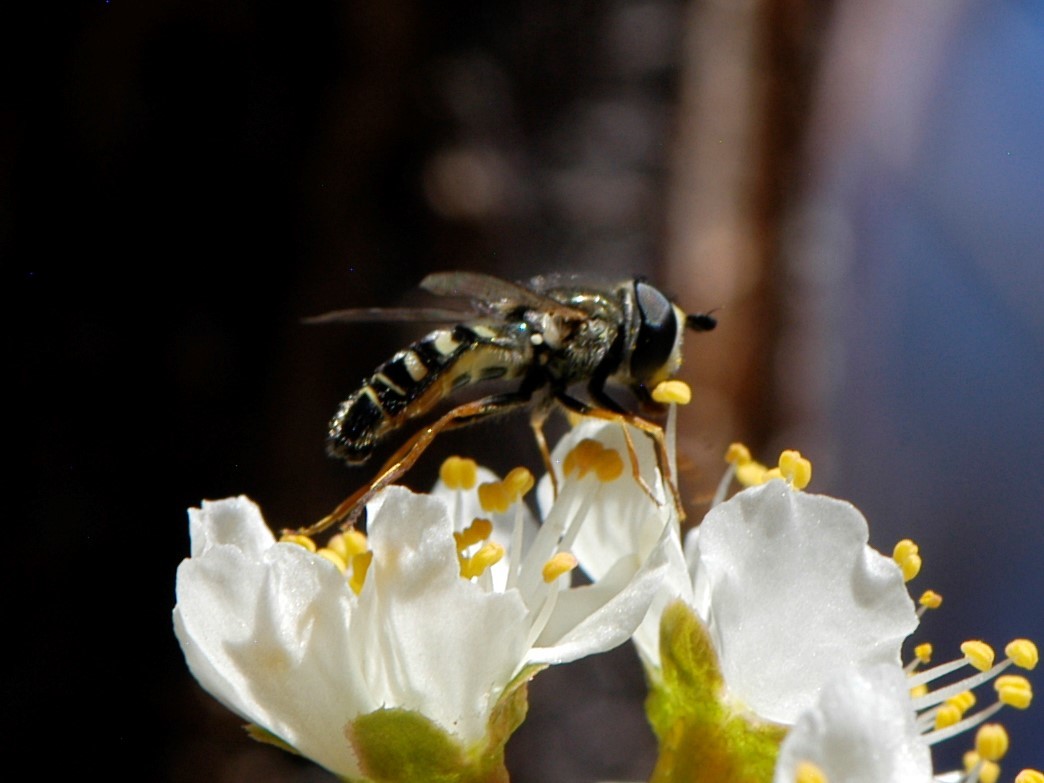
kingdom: Animalia
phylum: Arthropoda
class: Insecta
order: Diptera
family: Syrphidae
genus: Eupeodes
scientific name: Eupeodes volucris
